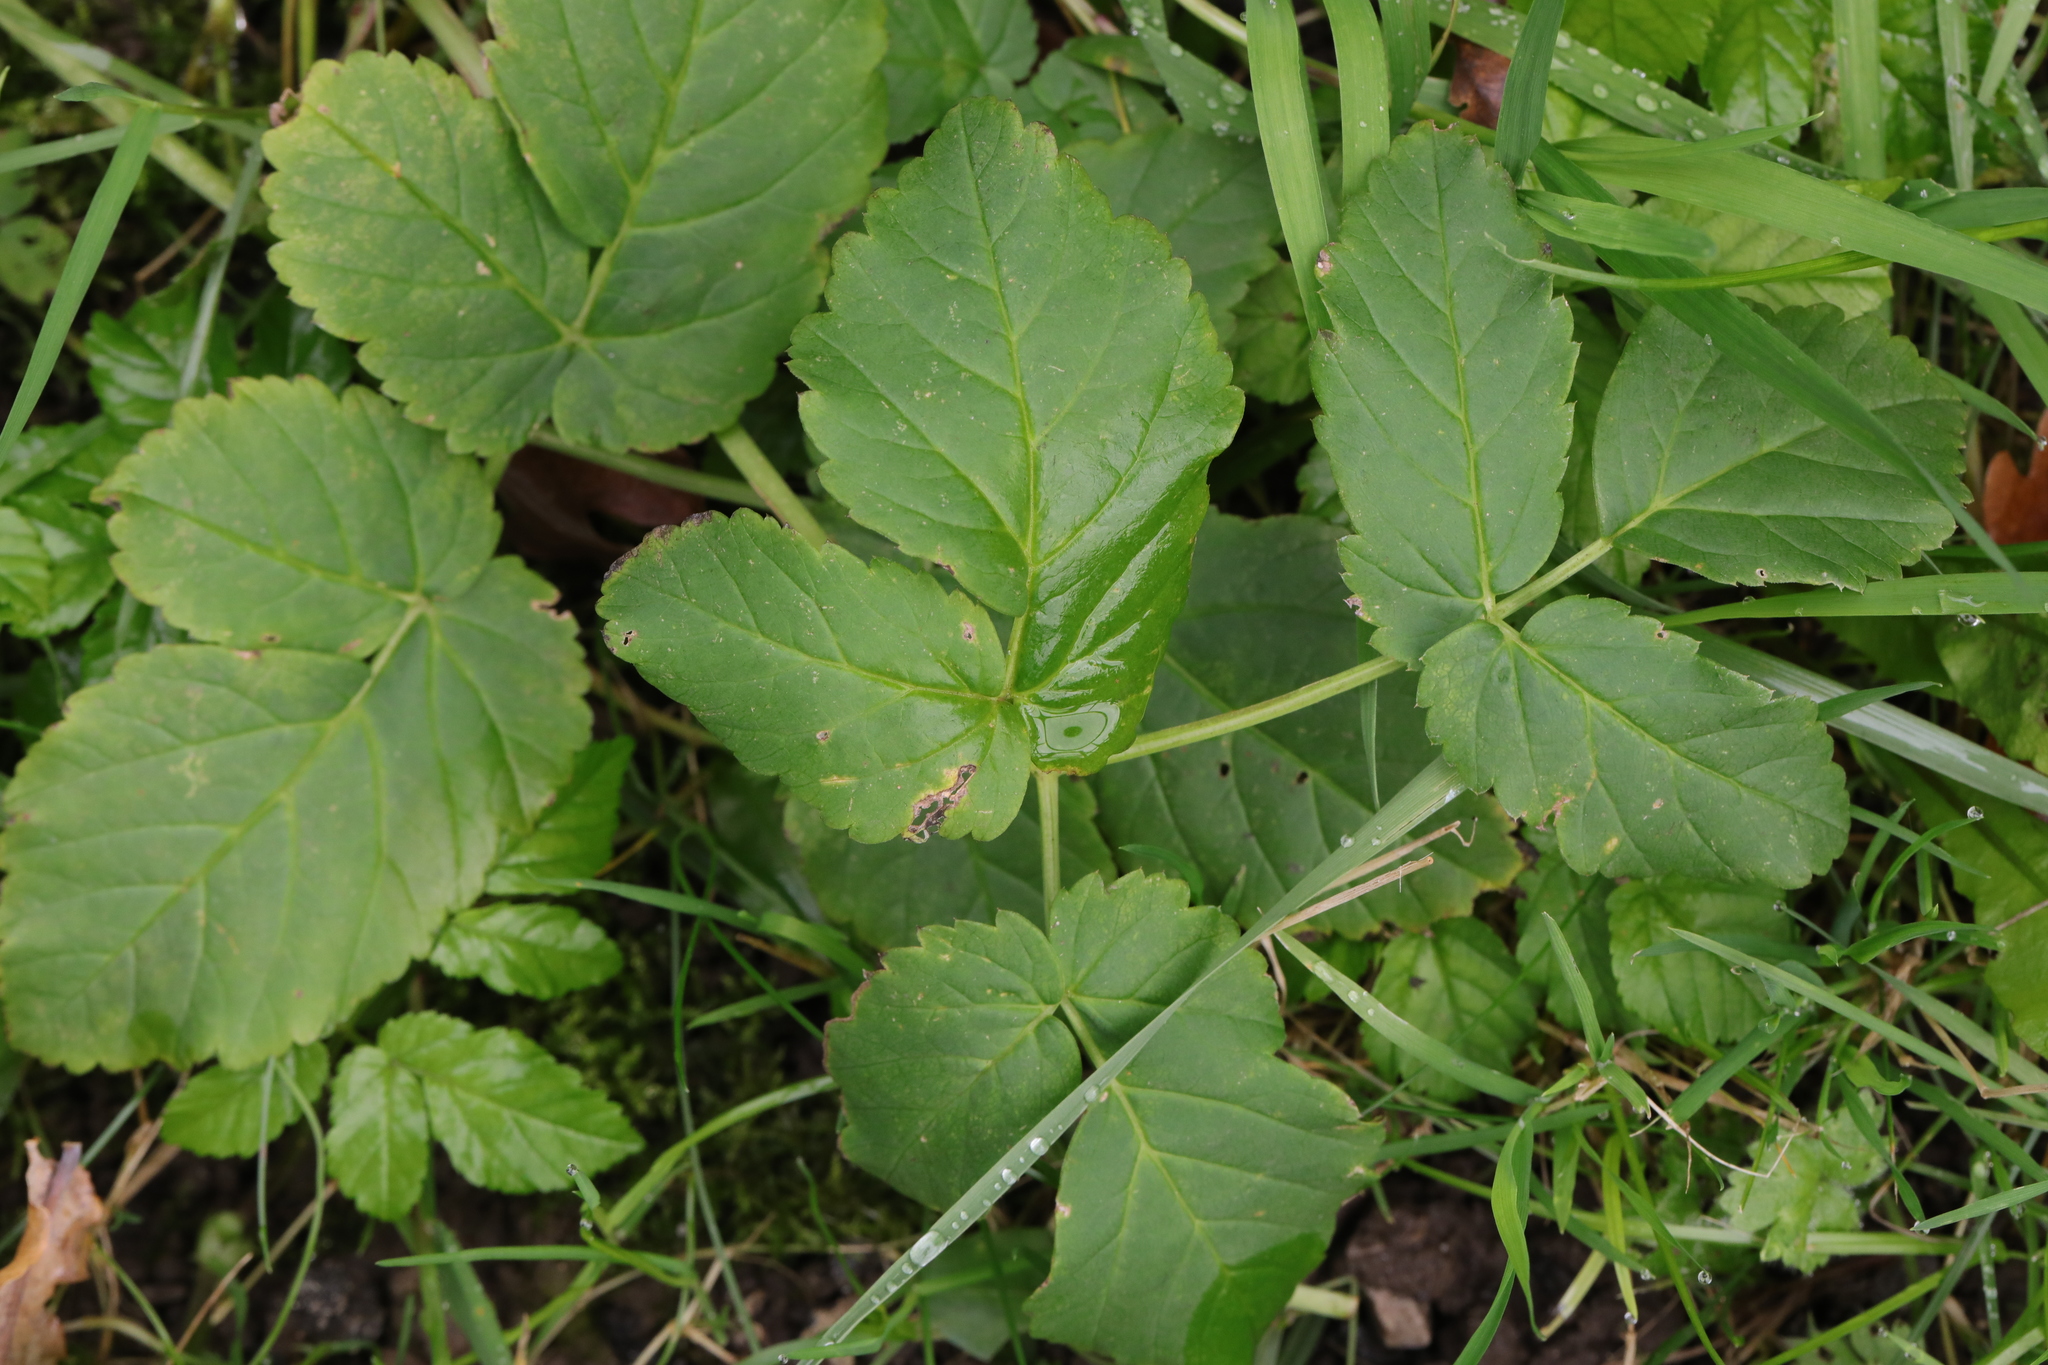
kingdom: Plantae
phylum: Tracheophyta
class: Magnoliopsida
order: Apiales
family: Apiaceae
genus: Aegopodium
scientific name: Aegopodium podagraria
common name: Ground-elder
